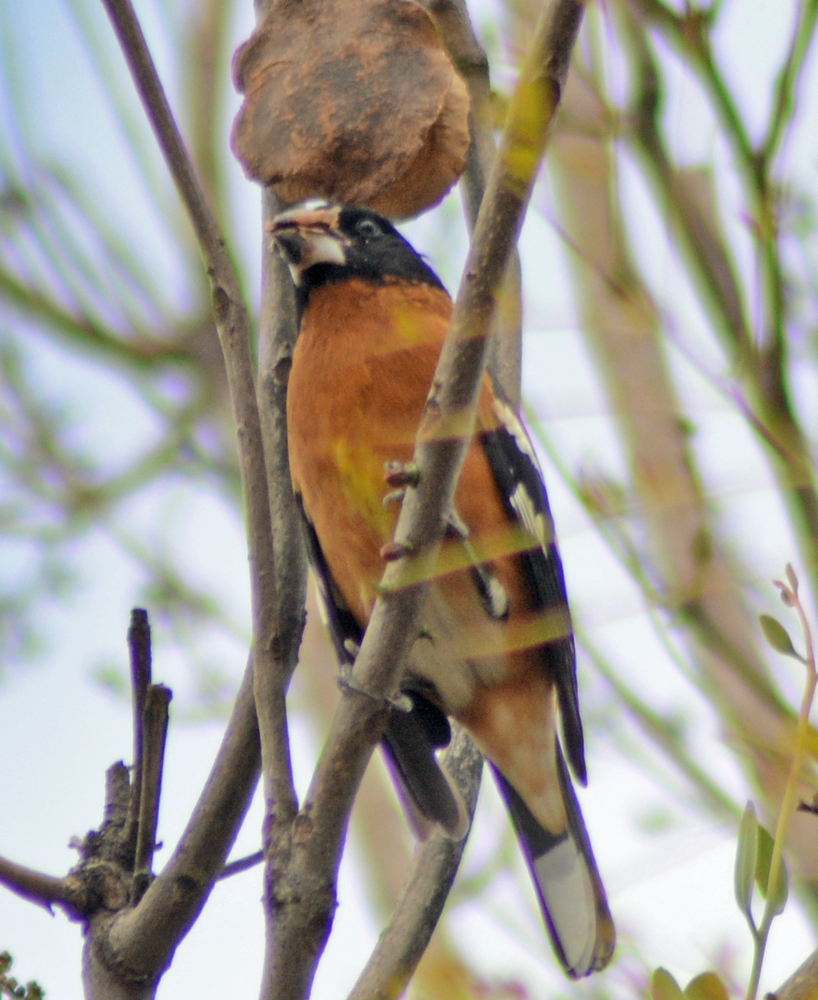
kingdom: Animalia
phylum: Chordata
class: Aves
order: Passeriformes
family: Cardinalidae
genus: Pheucticus
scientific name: Pheucticus melanocephalus
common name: Black-headed grosbeak
